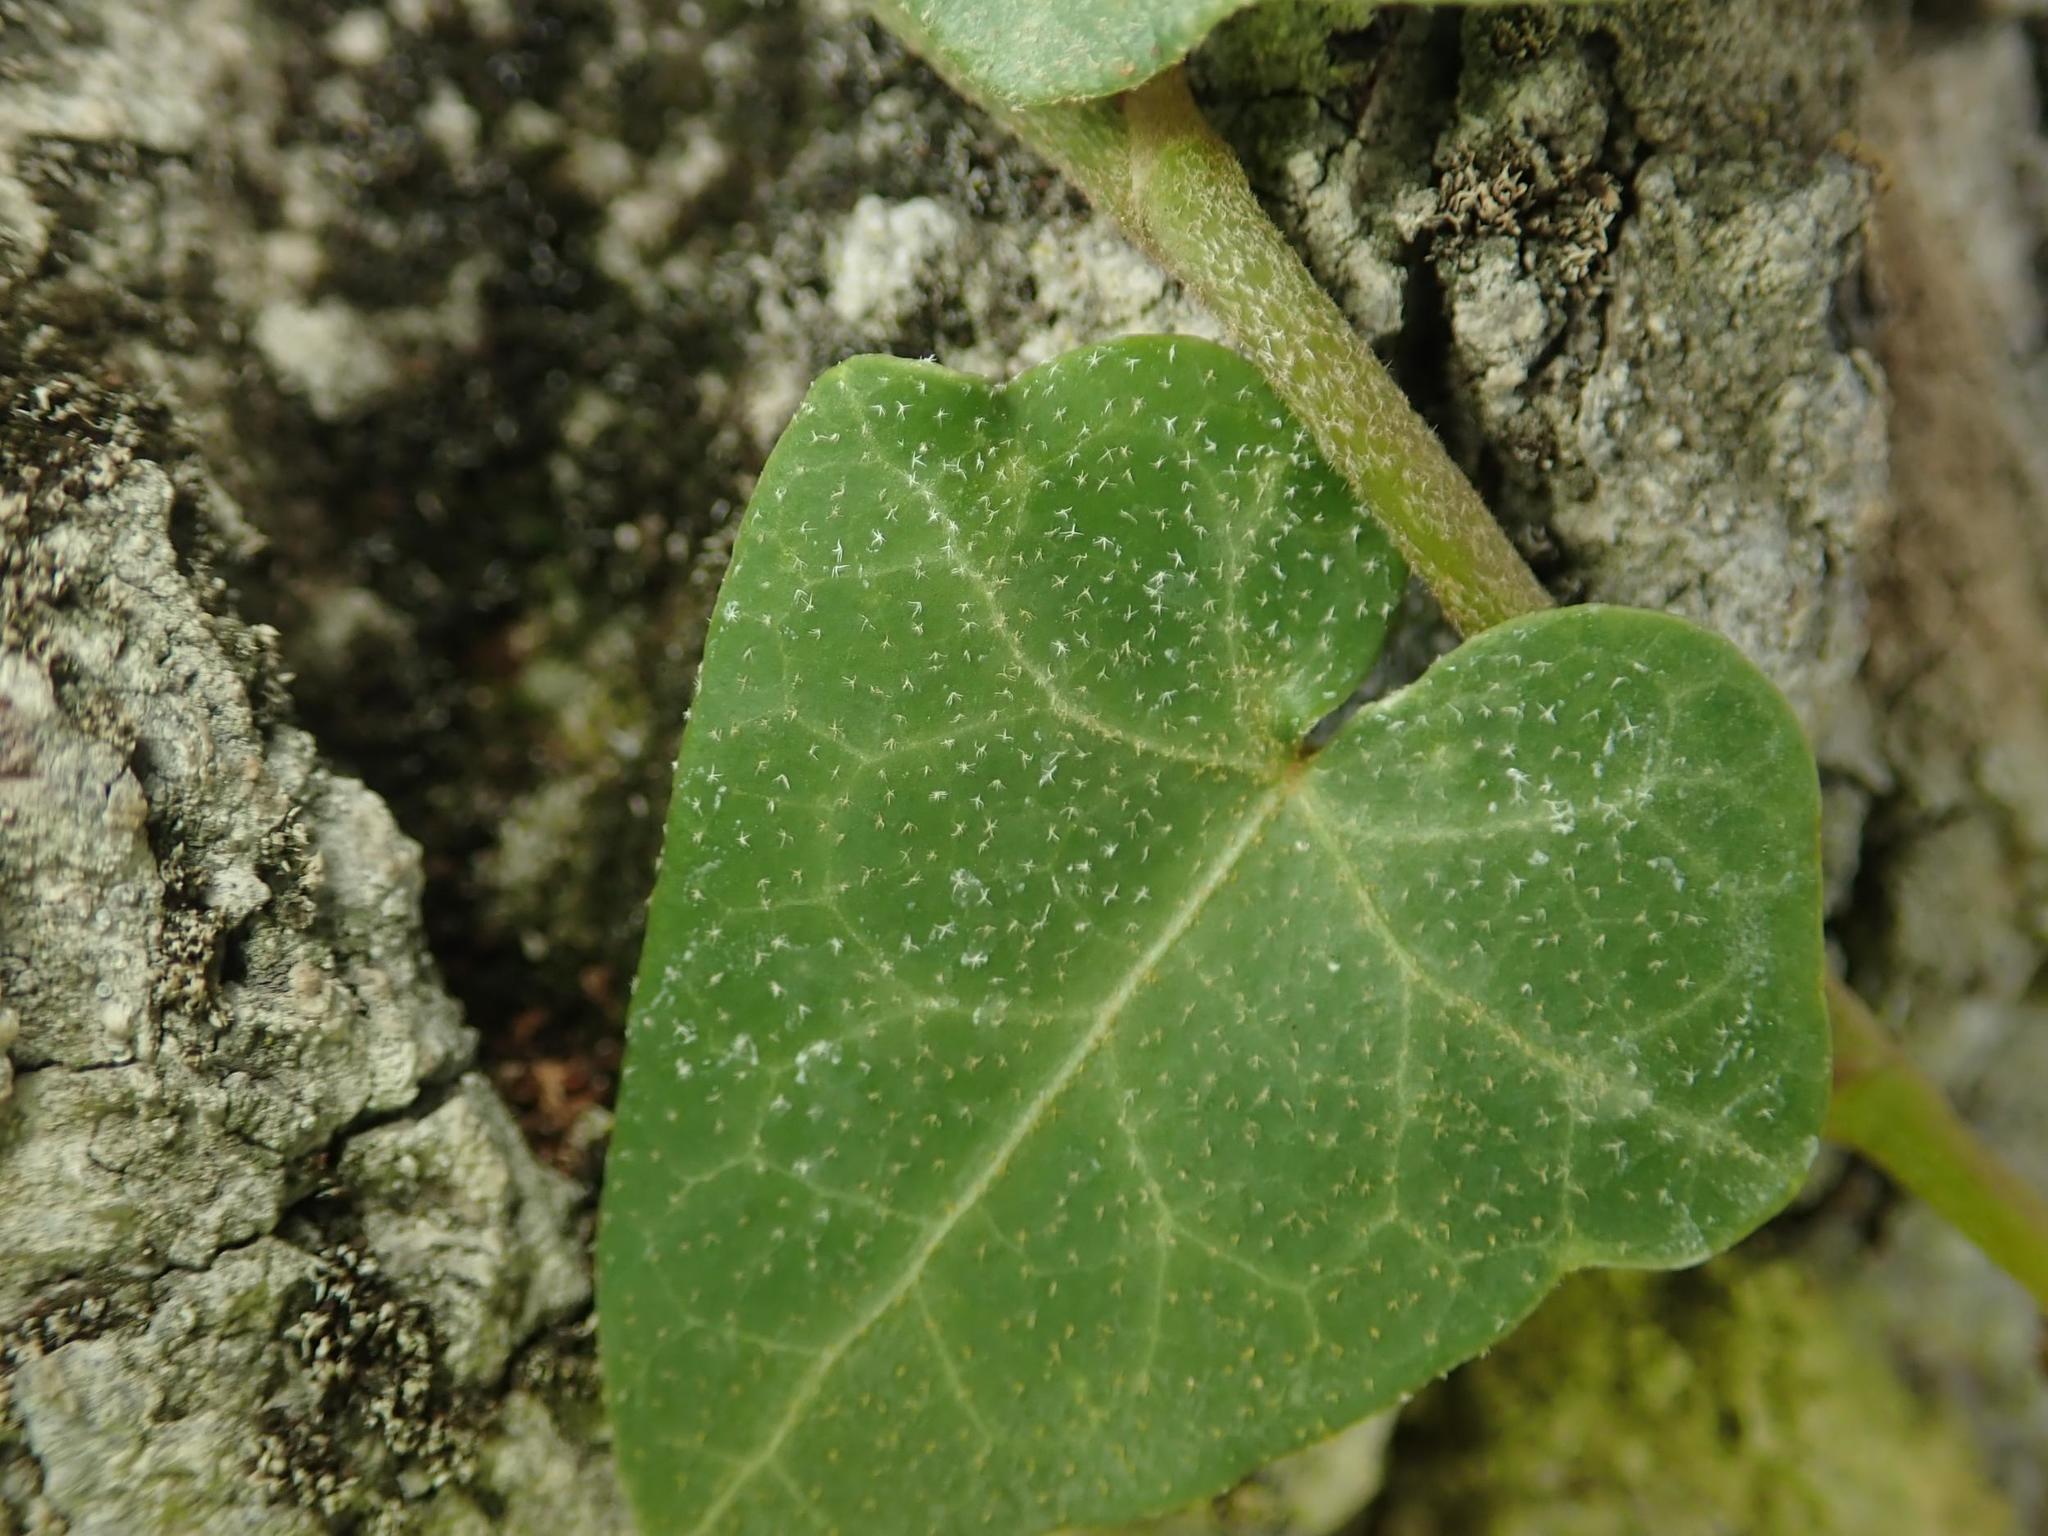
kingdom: Plantae
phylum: Tracheophyta
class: Magnoliopsida
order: Apiales
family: Araliaceae
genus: Hedera
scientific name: Hedera helix
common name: Ivy
